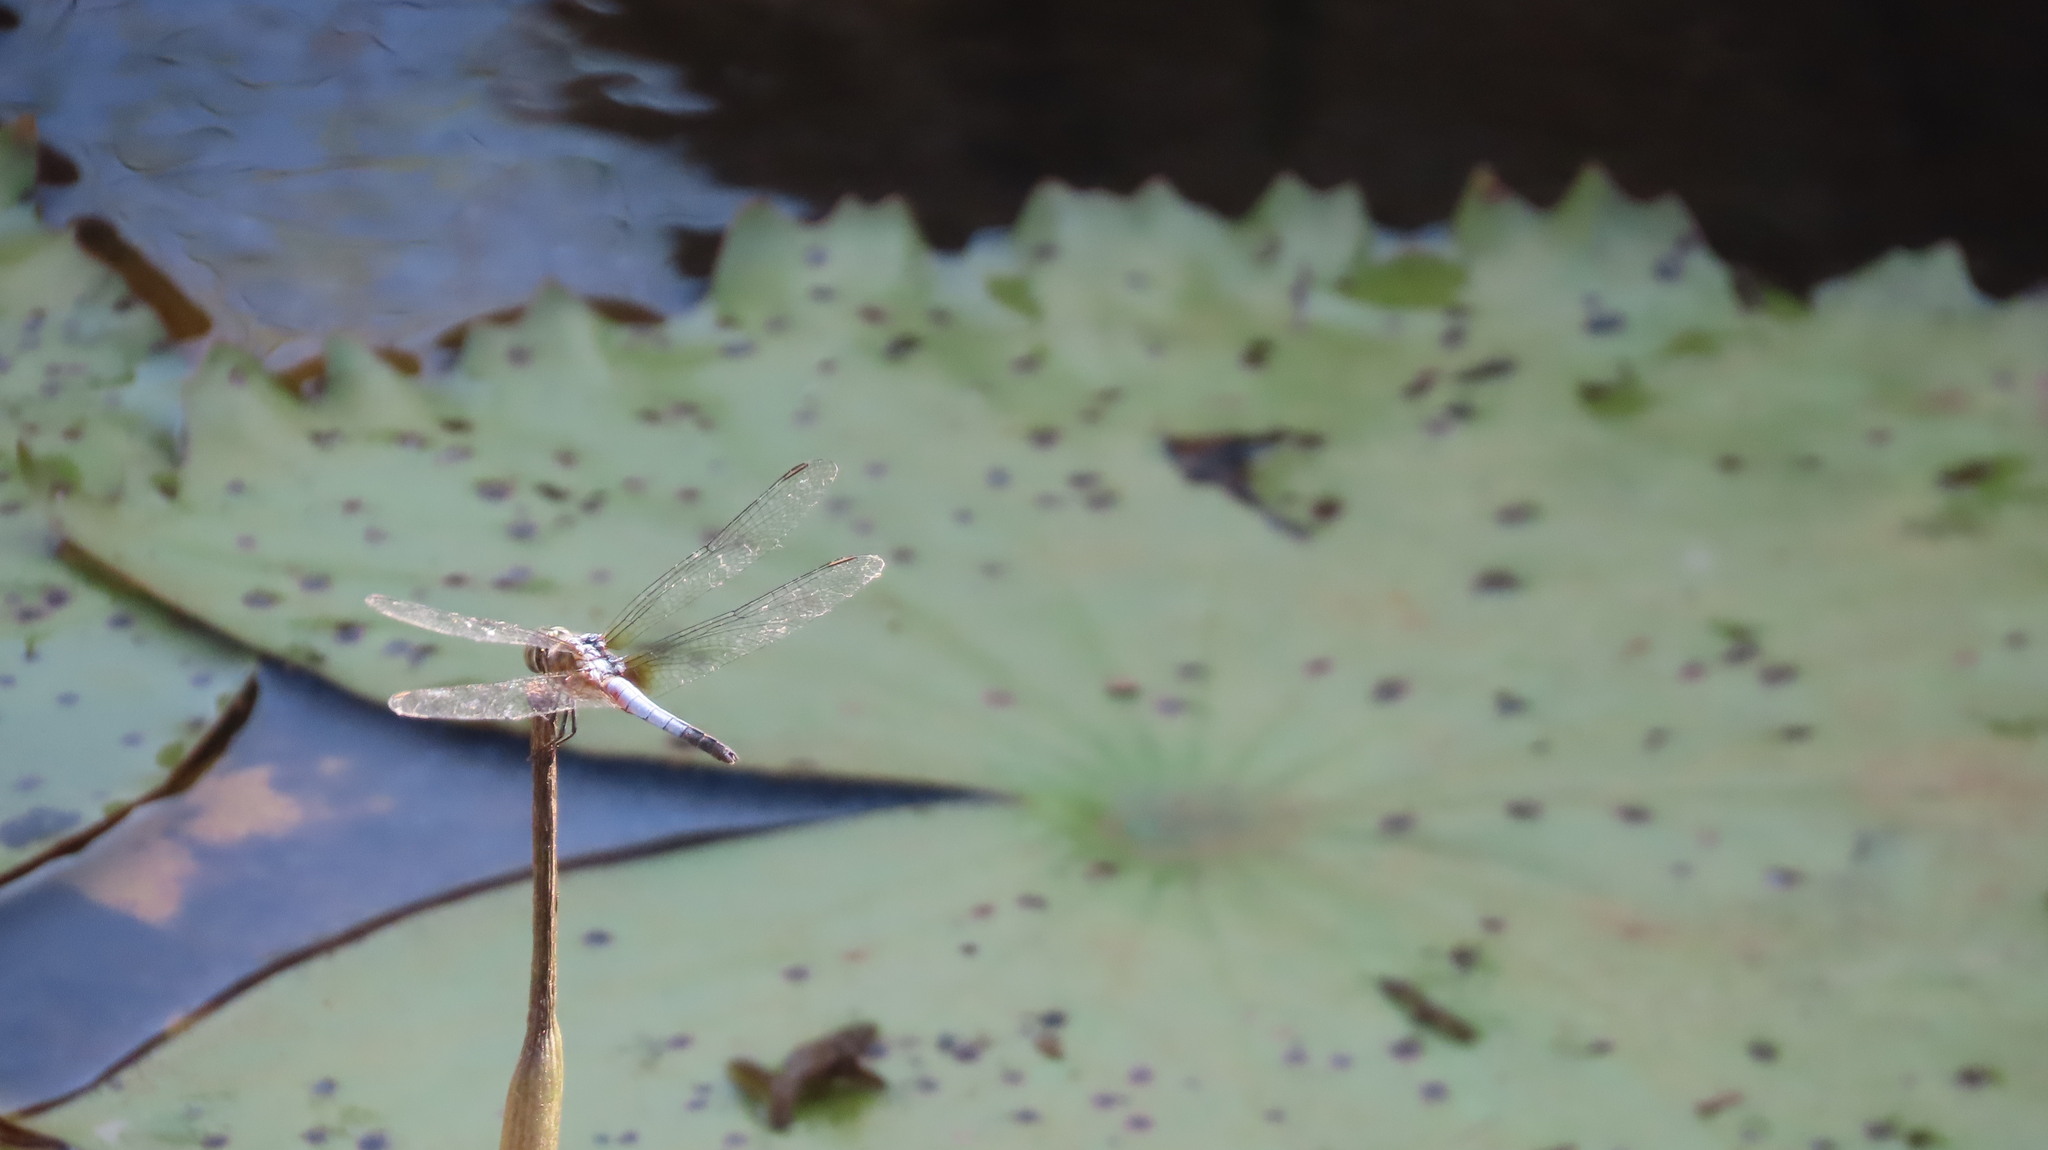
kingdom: Animalia
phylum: Arthropoda
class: Insecta
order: Odonata
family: Libellulidae
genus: Brachydiplax
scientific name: Brachydiplax chalybea
